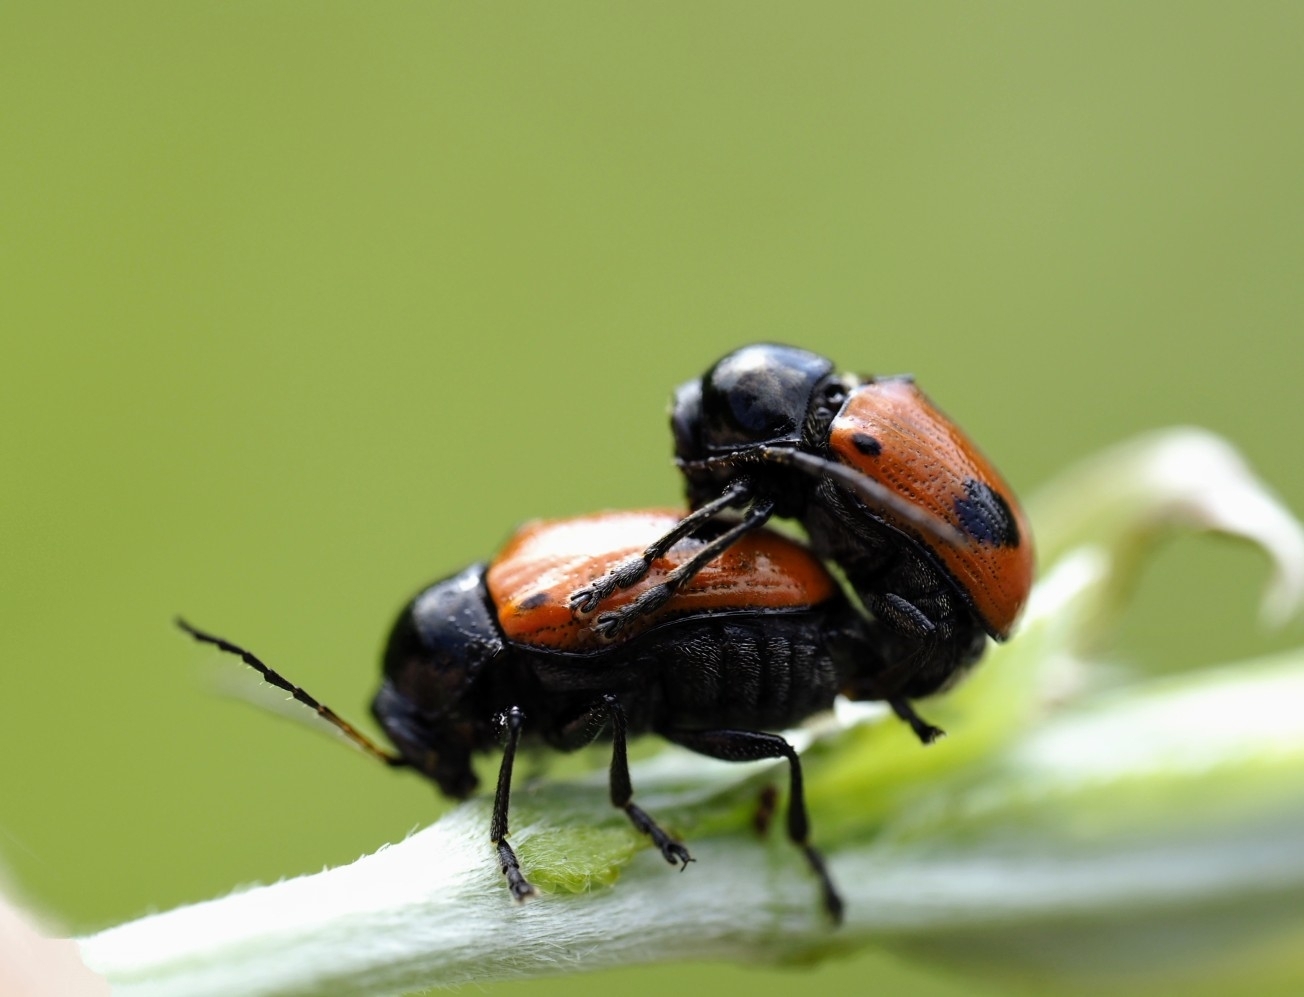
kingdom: Animalia
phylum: Arthropoda
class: Insecta
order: Coleoptera
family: Chrysomelidae
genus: Chiridopsis
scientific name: Chiridopsis bipunctata
